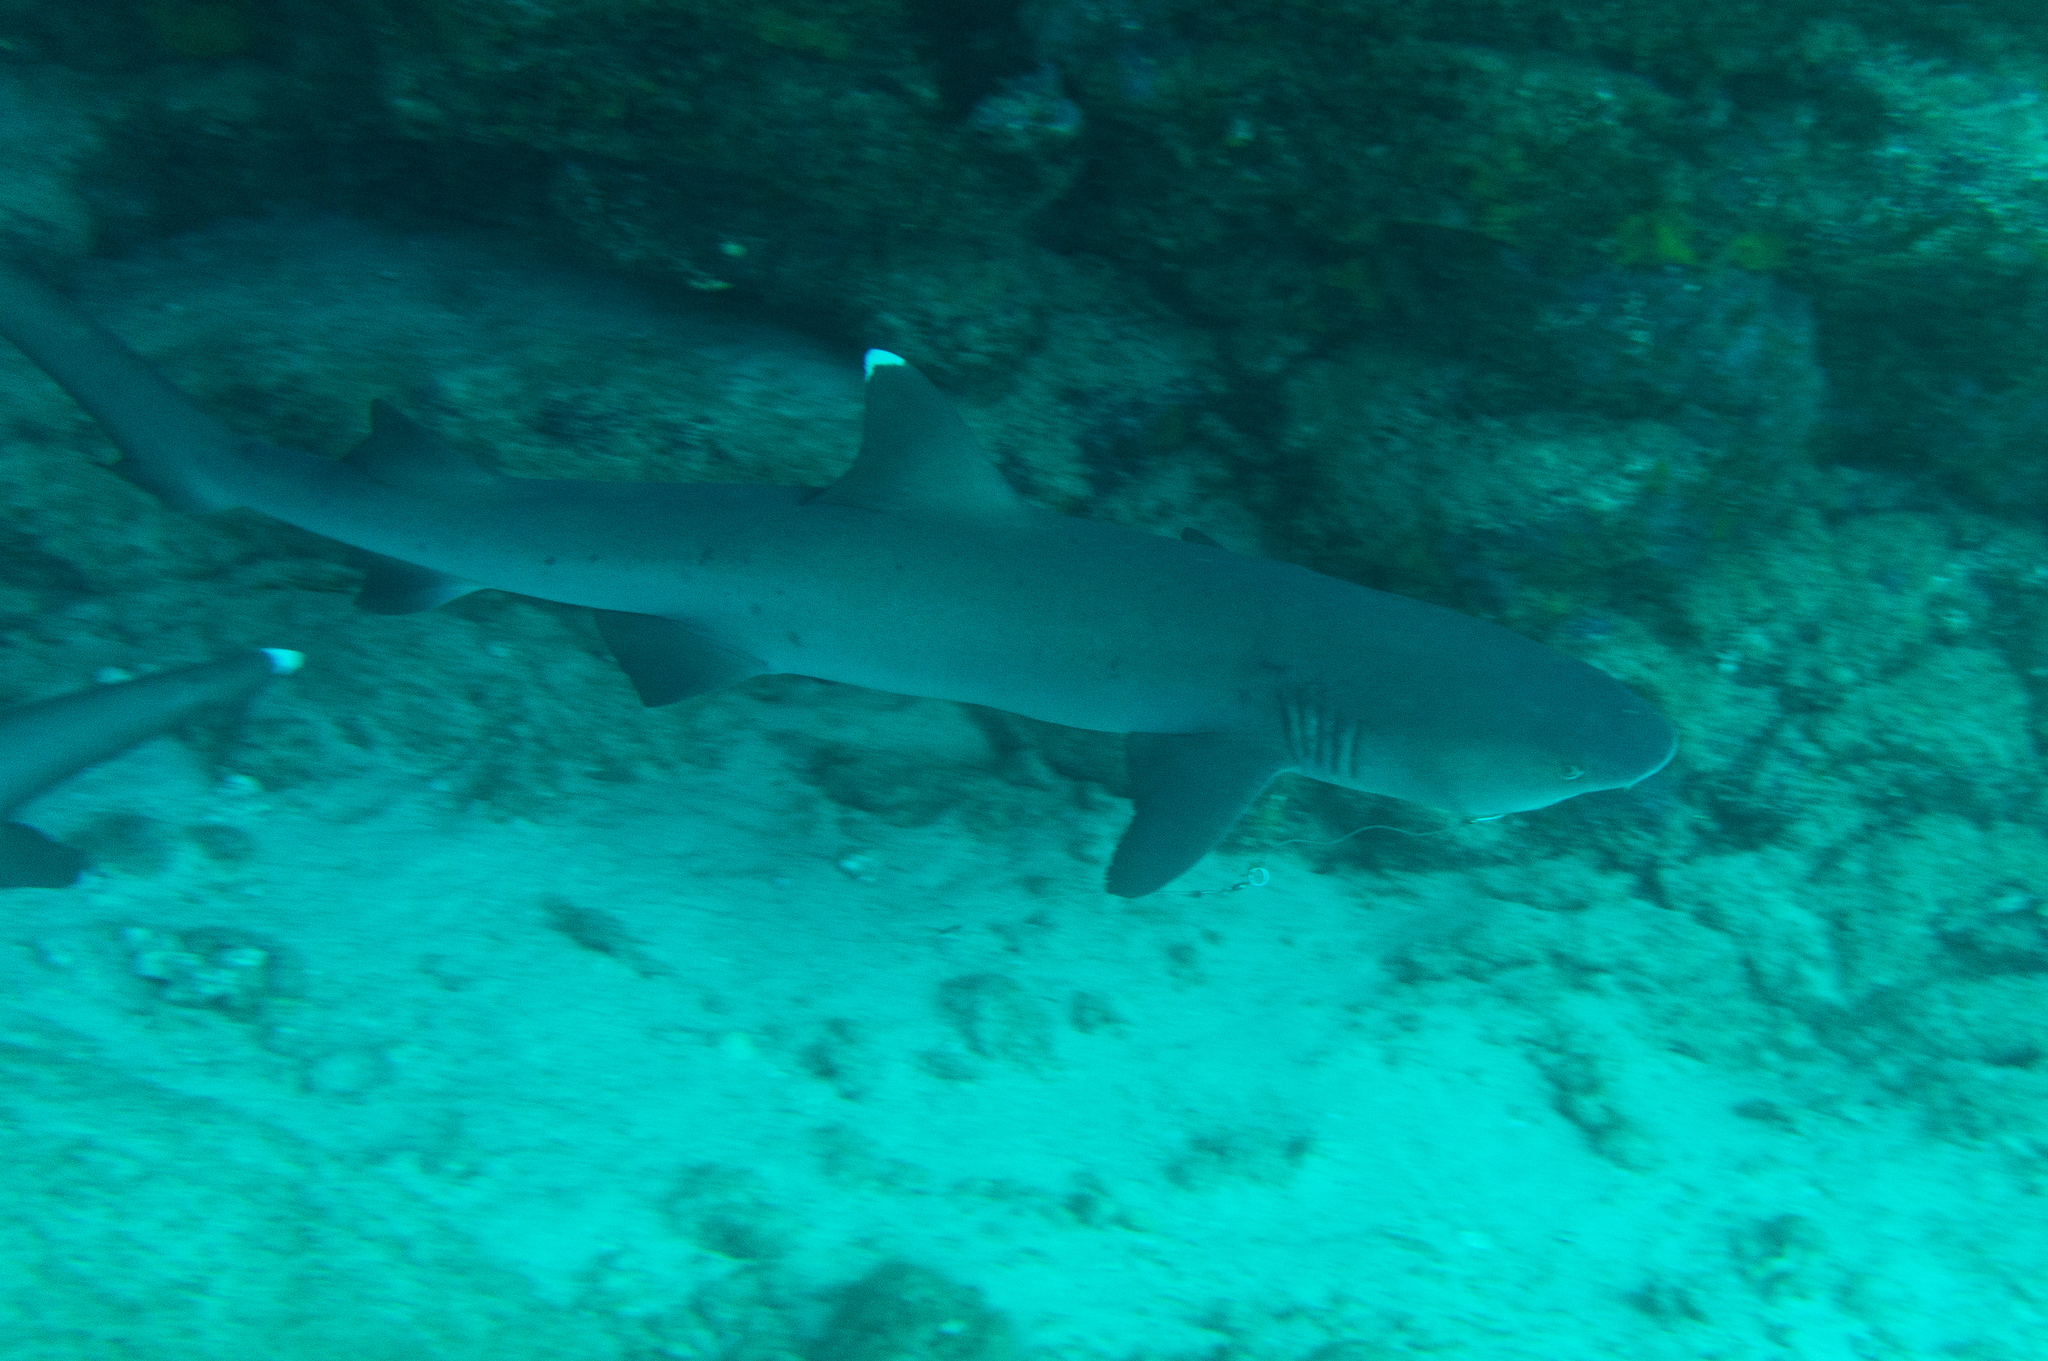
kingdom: Animalia
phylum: Chordata
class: Elasmobranchii
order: Carcharhiniformes
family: Carcharhinidae
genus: Triaenodon
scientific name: Triaenodon obesus
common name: Whitetip reef shark
